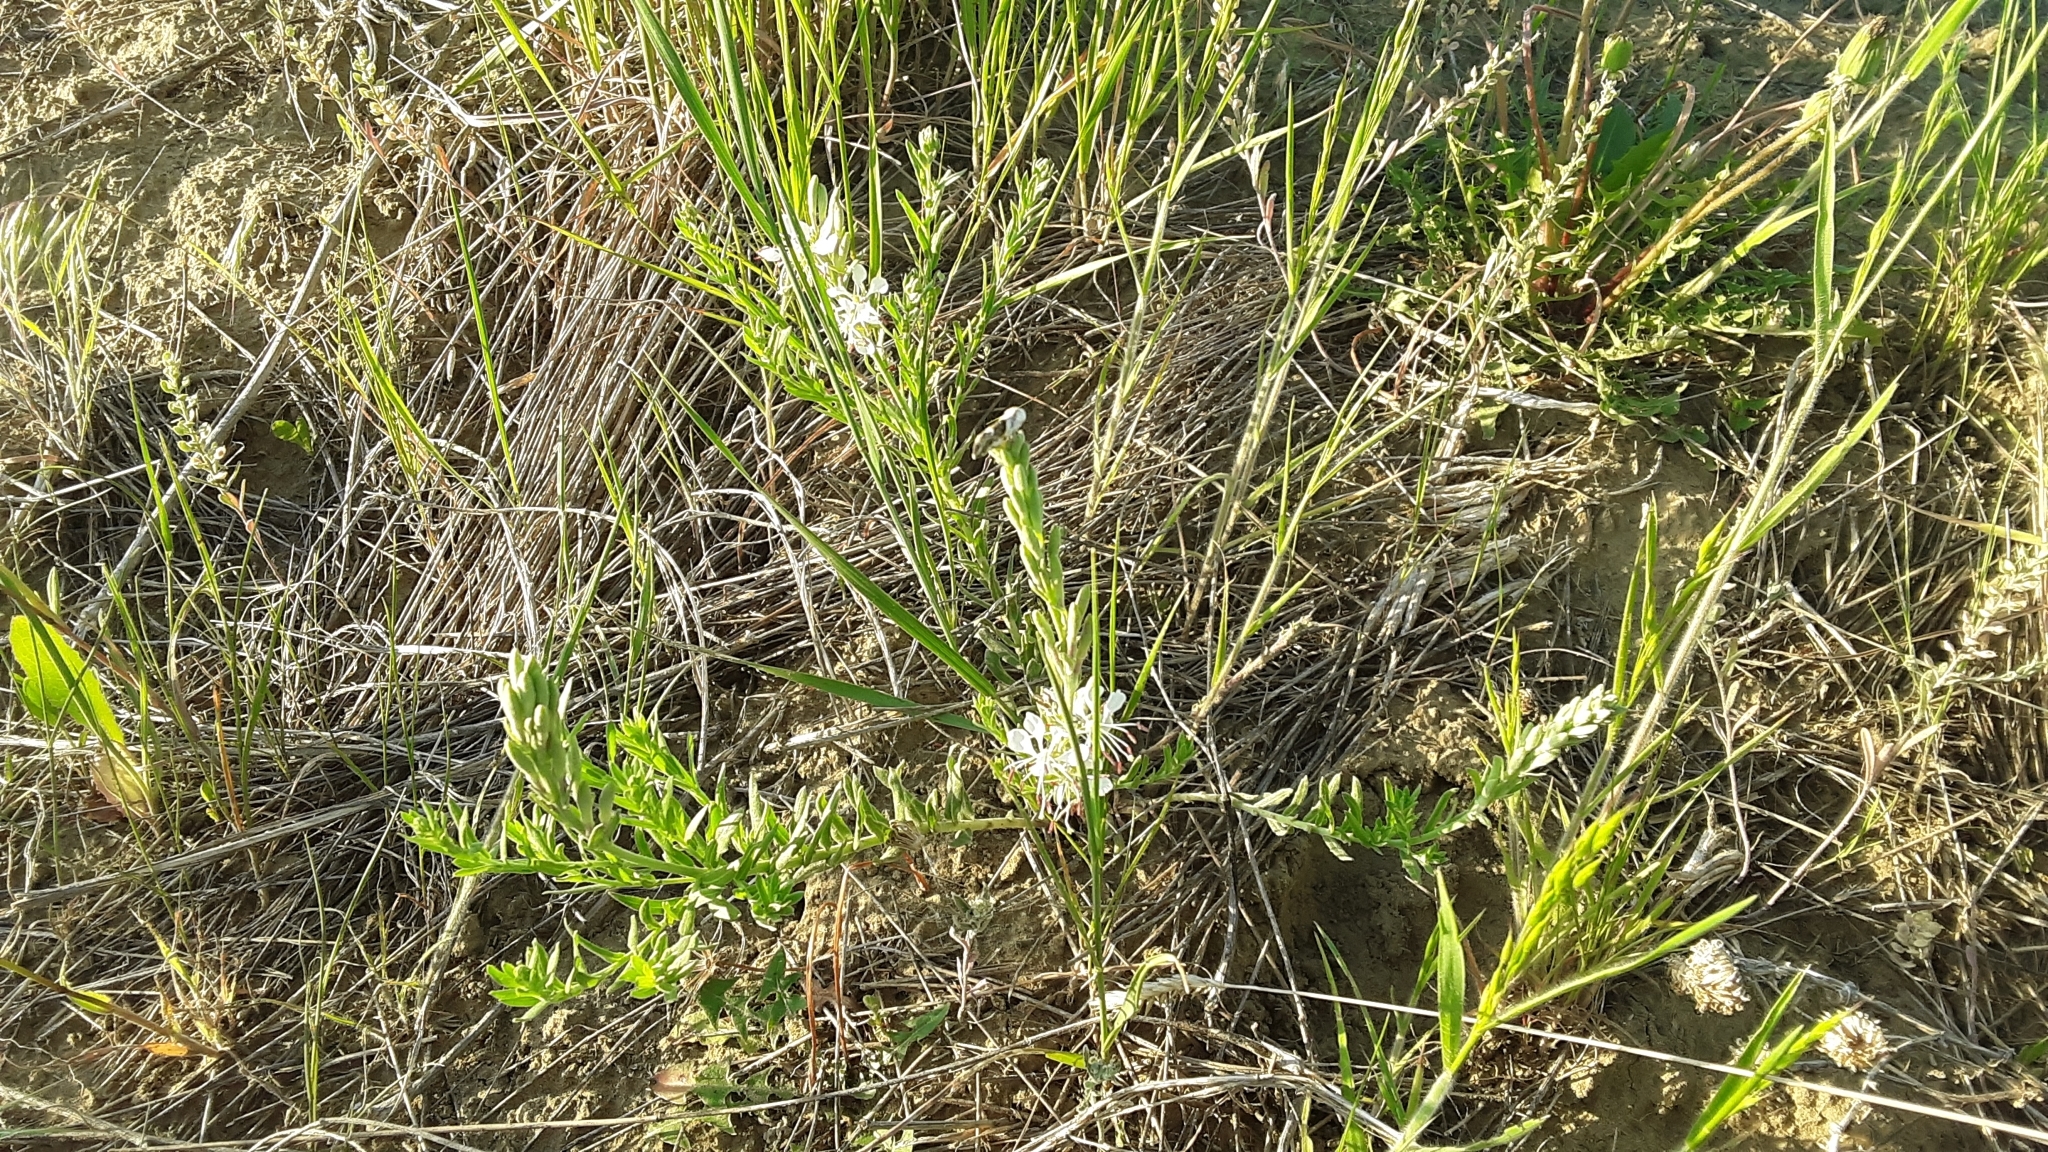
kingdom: Plantae
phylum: Tracheophyta
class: Magnoliopsida
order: Myrtales
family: Onagraceae
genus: Oenothera
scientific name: Oenothera suffrutescens
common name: Scarlet beeblossom
